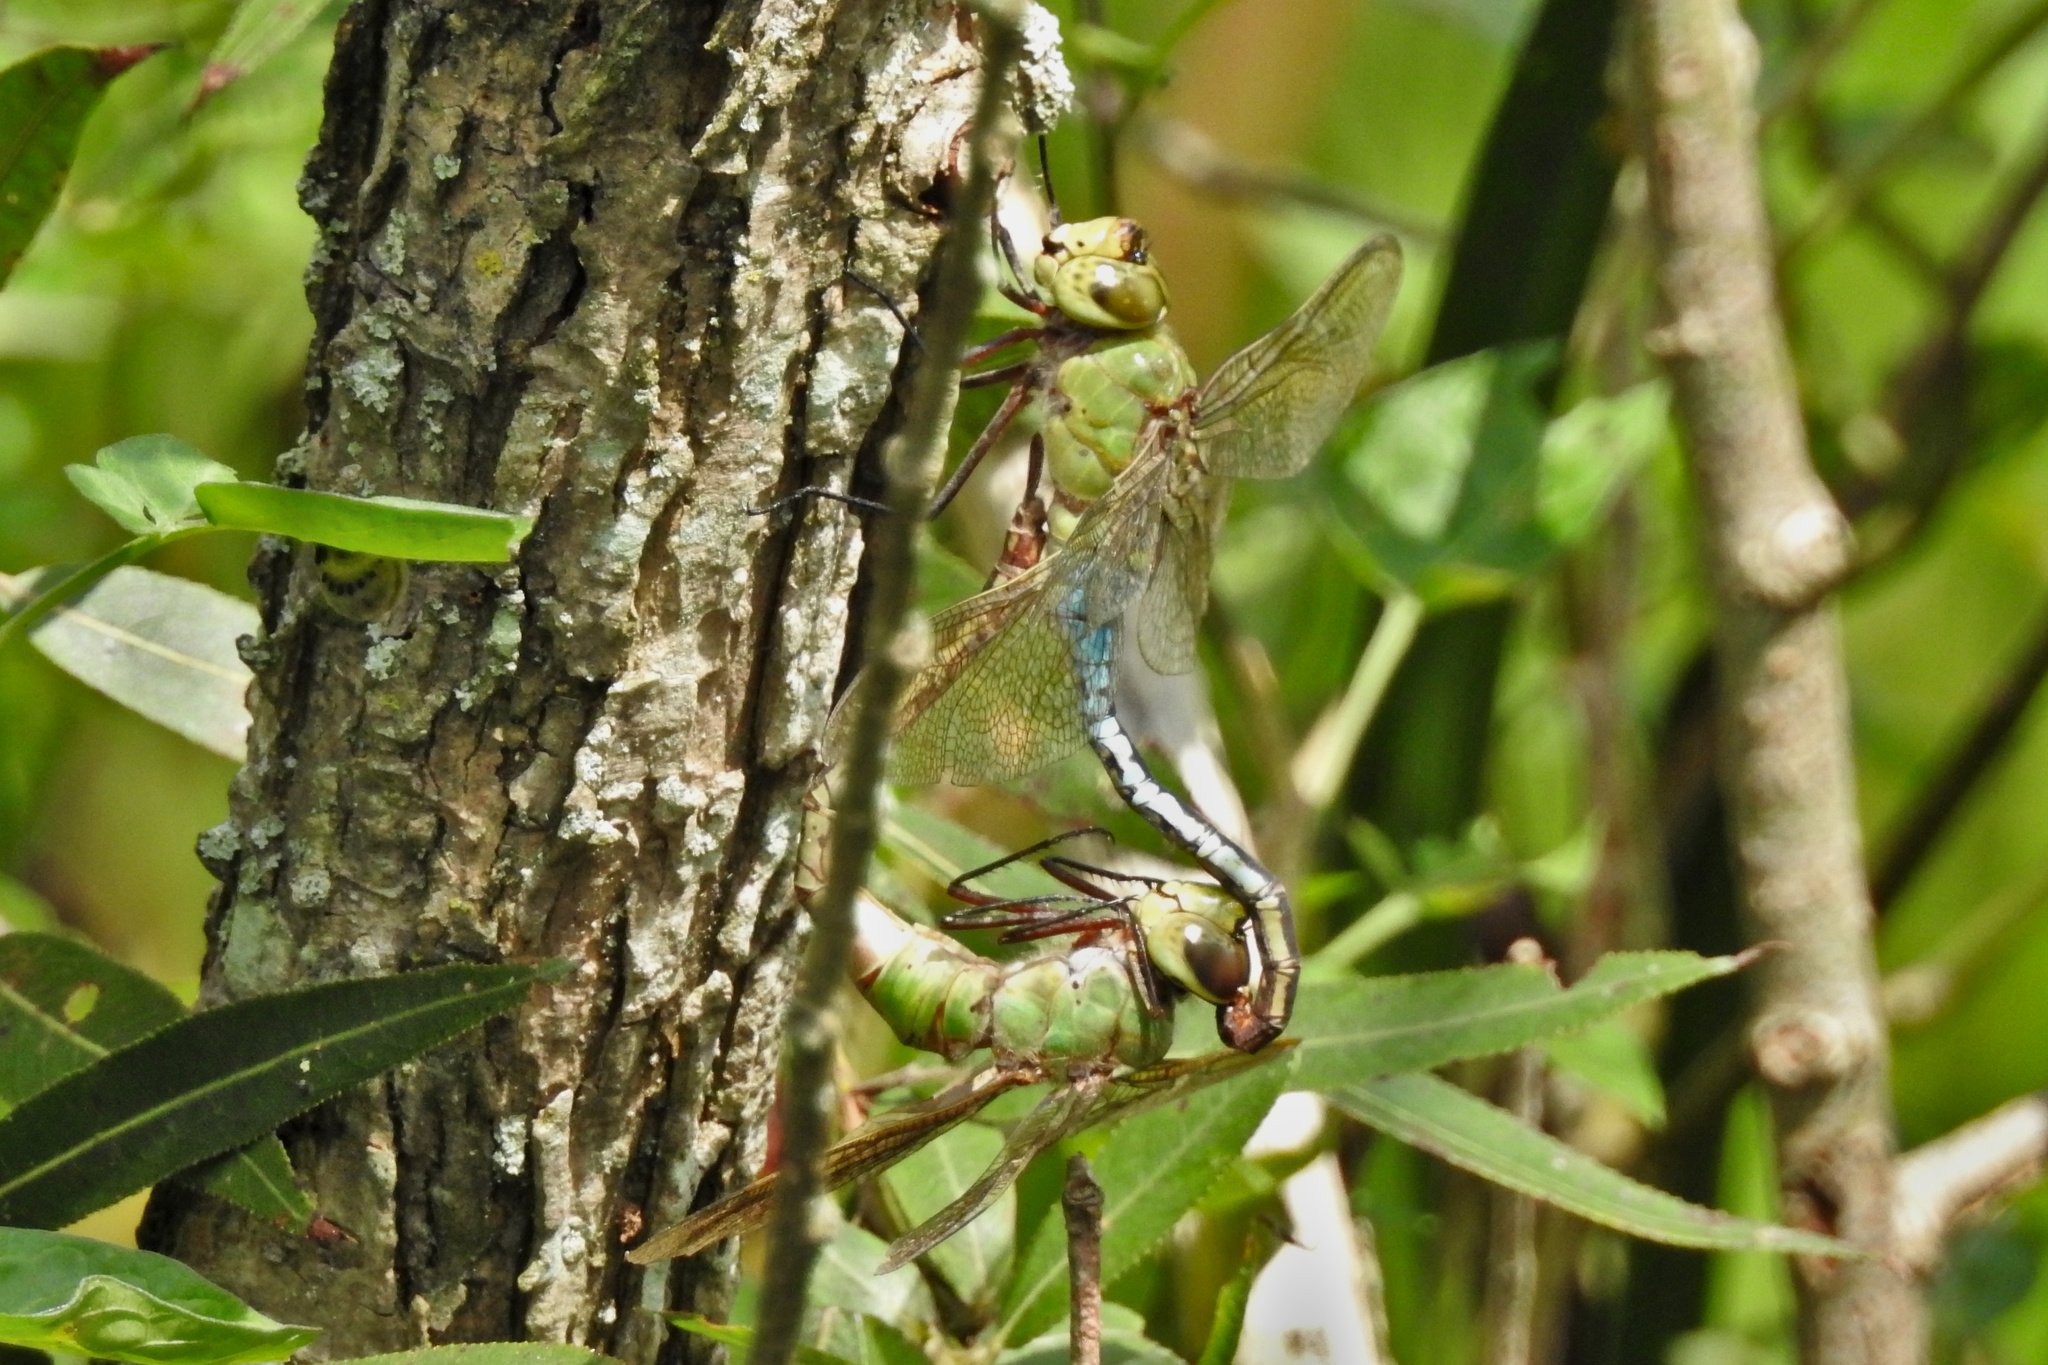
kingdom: Animalia
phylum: Arthropoda
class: Insecta
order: Odonata
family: Aeshnidae
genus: Anax
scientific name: Anax junius
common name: Common green darner
